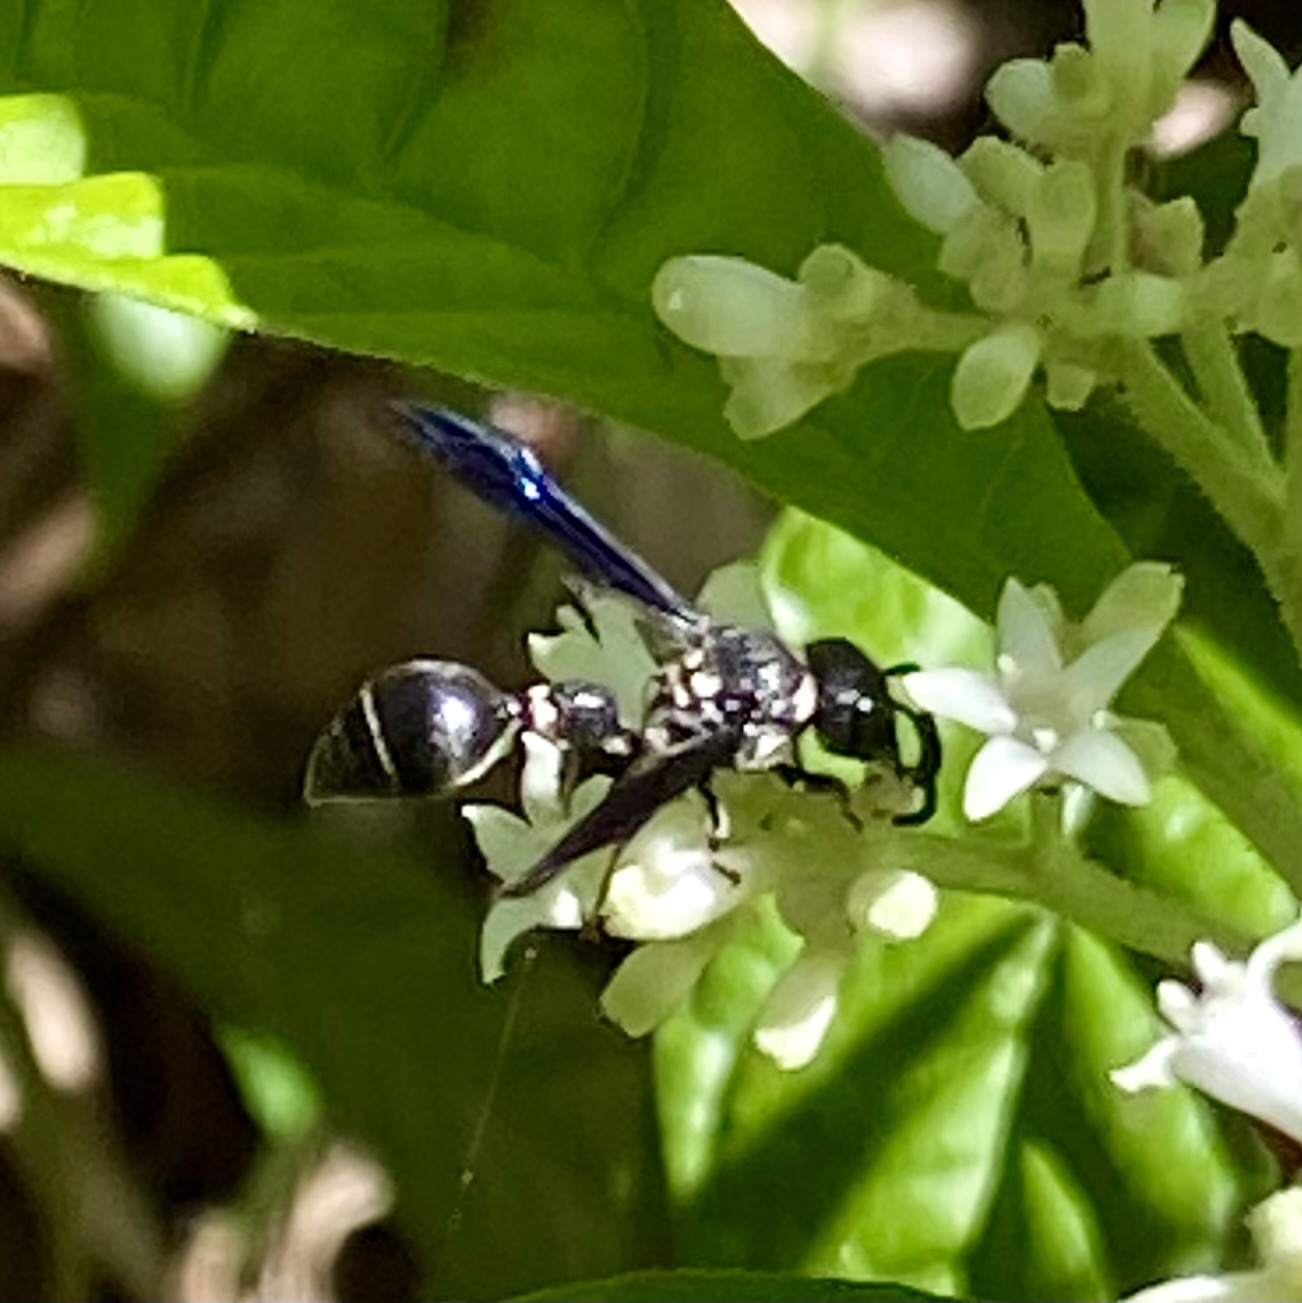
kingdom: Animalia
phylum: Arthropoda
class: Insecta
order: Hymenoptera
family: Eumenidae
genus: Zethus
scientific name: Zethus spinipes
